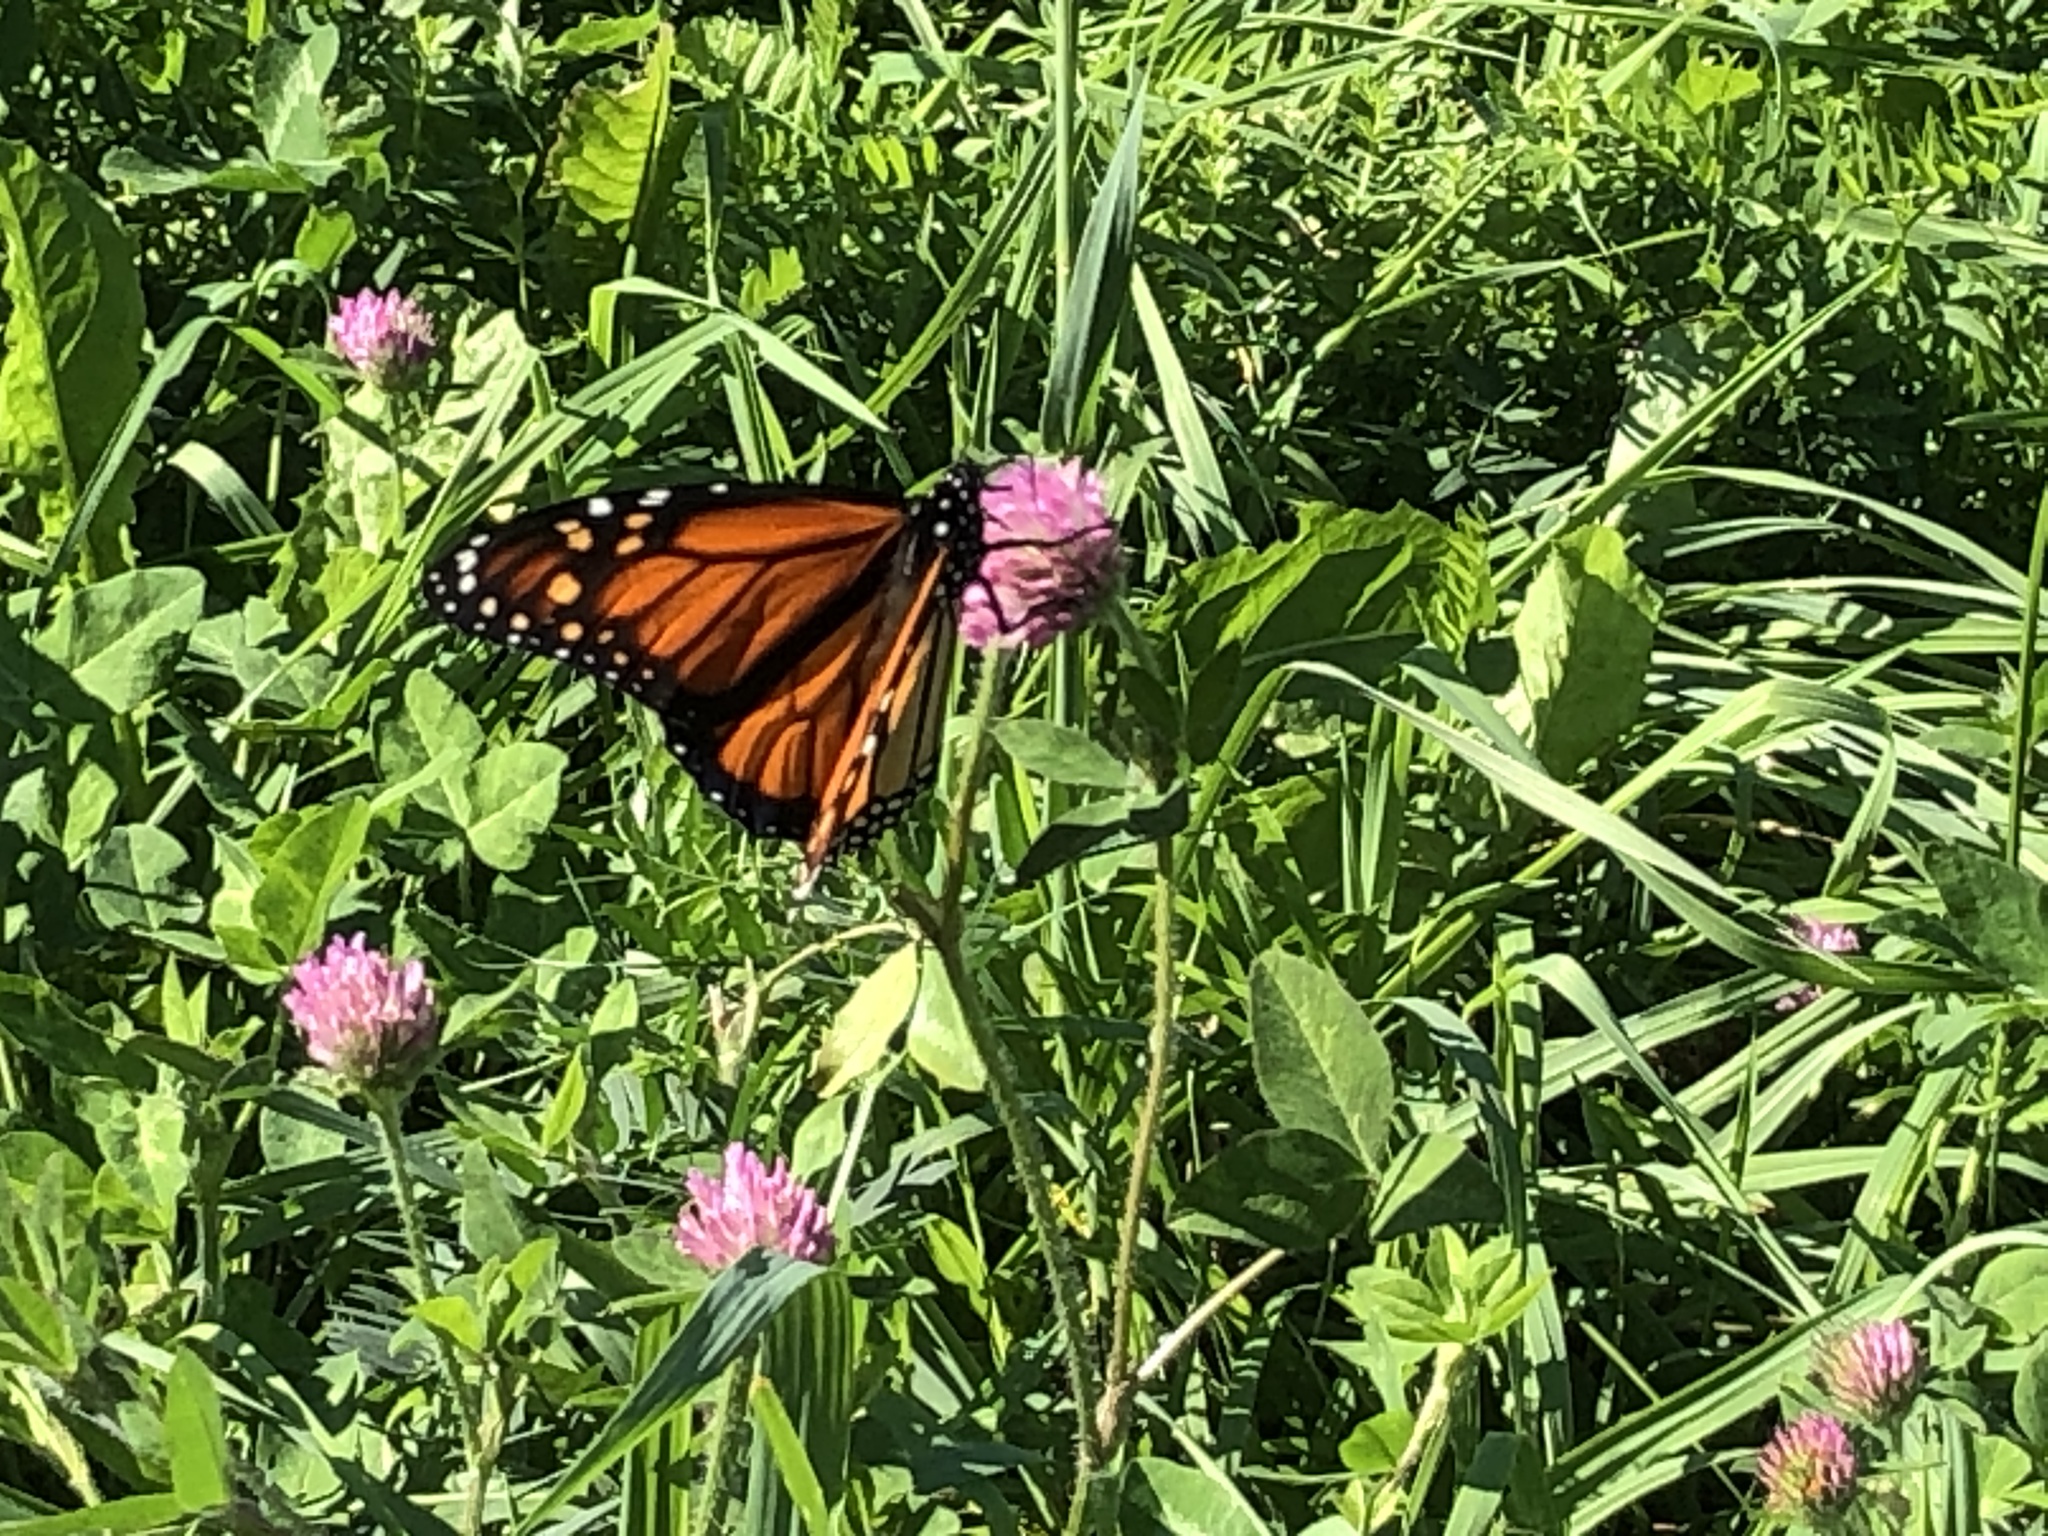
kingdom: Animalia
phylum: Arthropoda
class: Insecta
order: Lepidoptera
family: Nymphalidae
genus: Danaus
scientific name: Danaus plexippus
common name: Monarch
